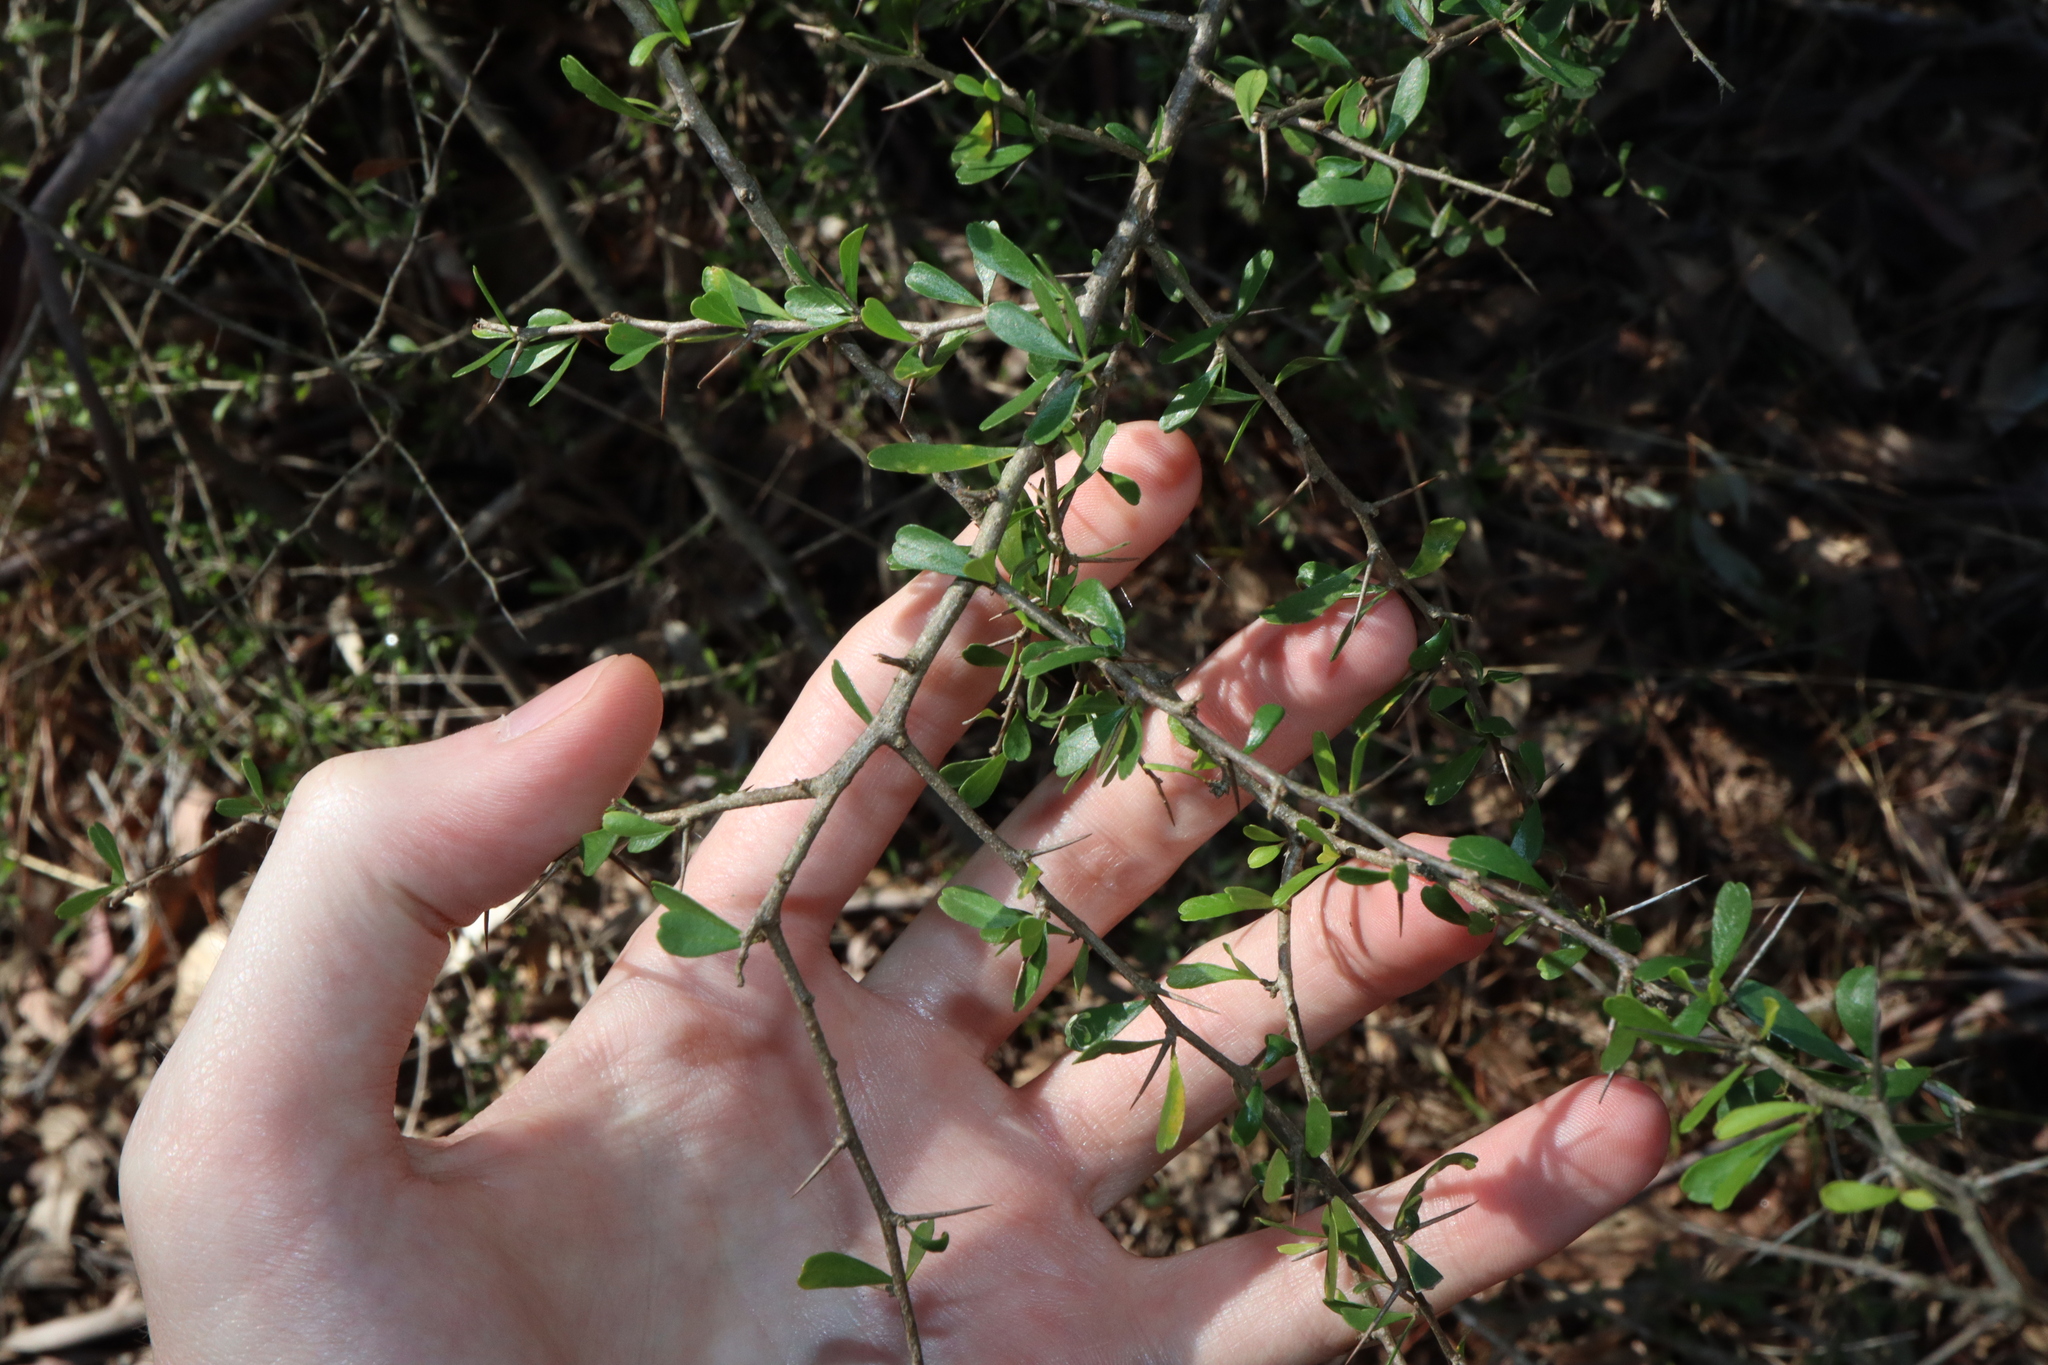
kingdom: Plantae
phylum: Tracheophyta
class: Magnoliopsida
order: Apiales
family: Pittosporaceae
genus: Bursaria
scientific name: Bursaria spinosa
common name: Australian blackthorn
